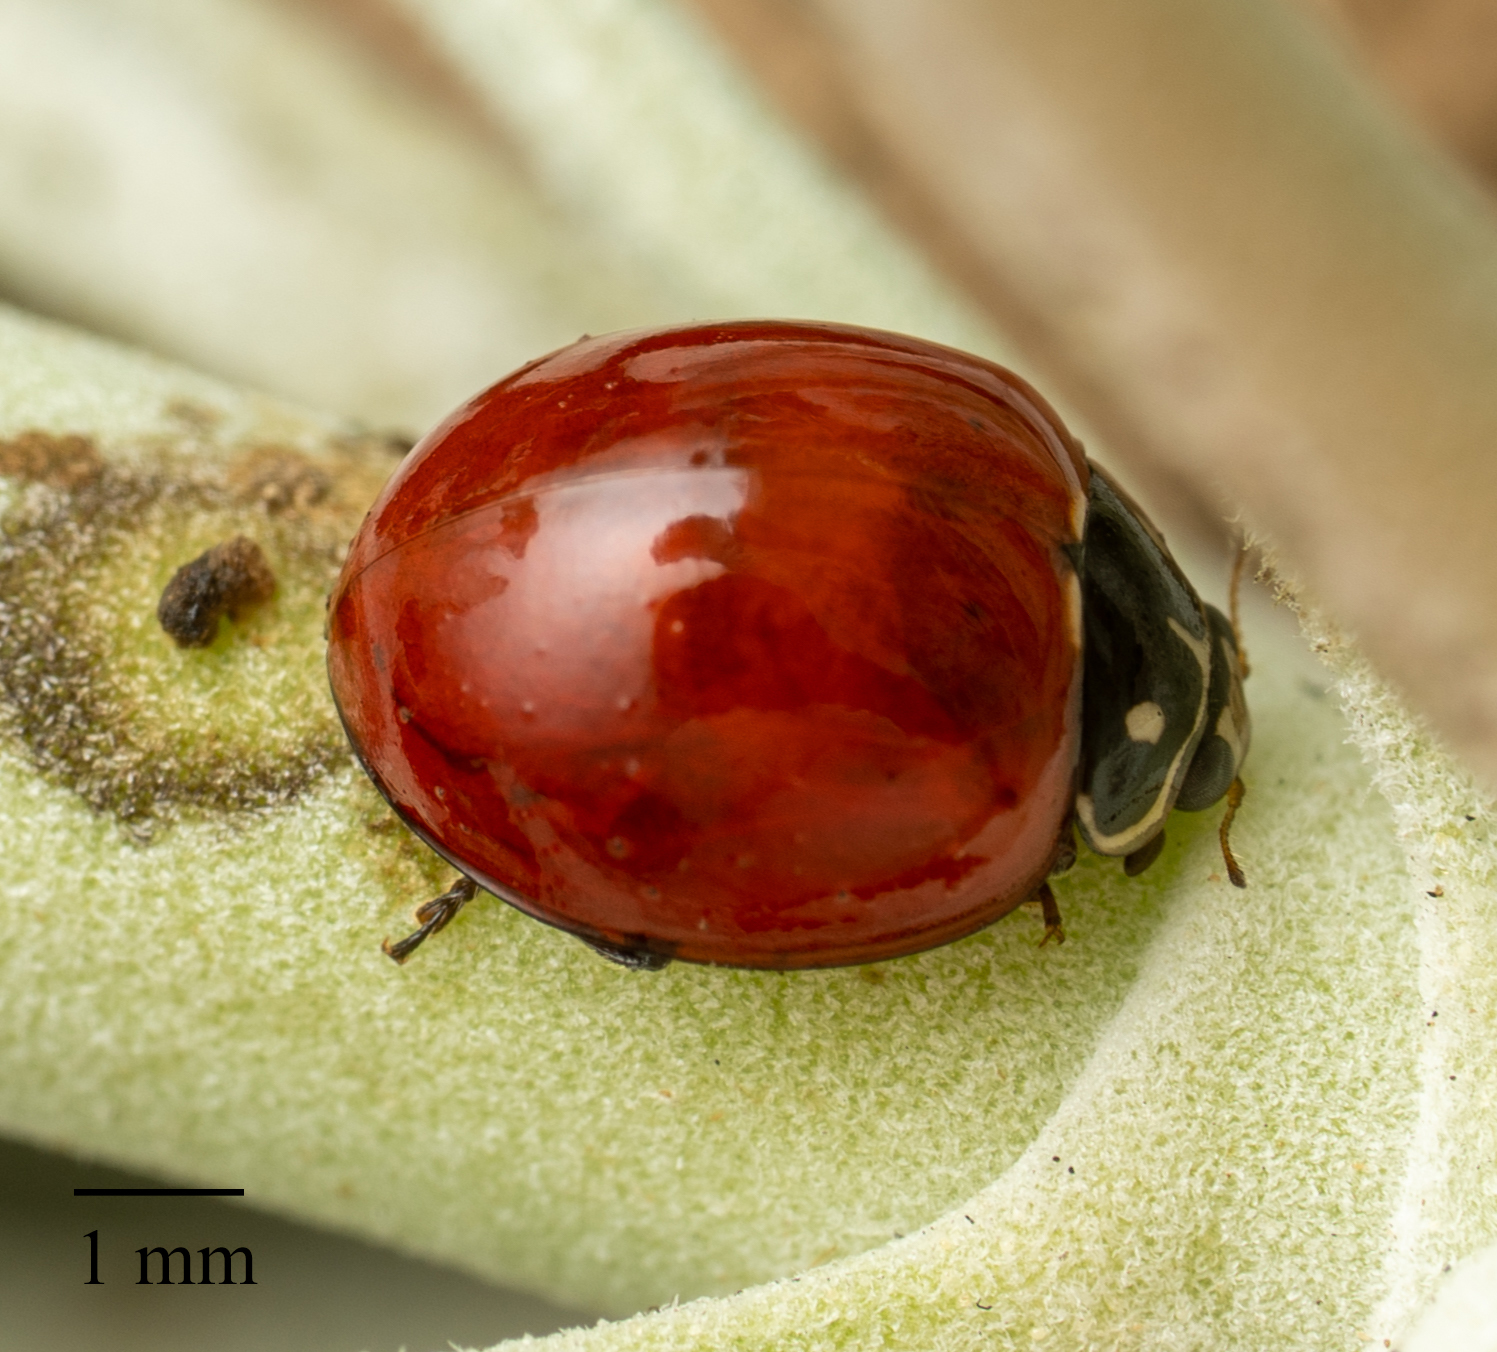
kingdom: Animalia
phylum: Arthropoda
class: Insecta
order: Coleoptera
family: Coccinellidae
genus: Cycloneda
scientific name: Cycloneda sanguinea
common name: Ladybird beetle
